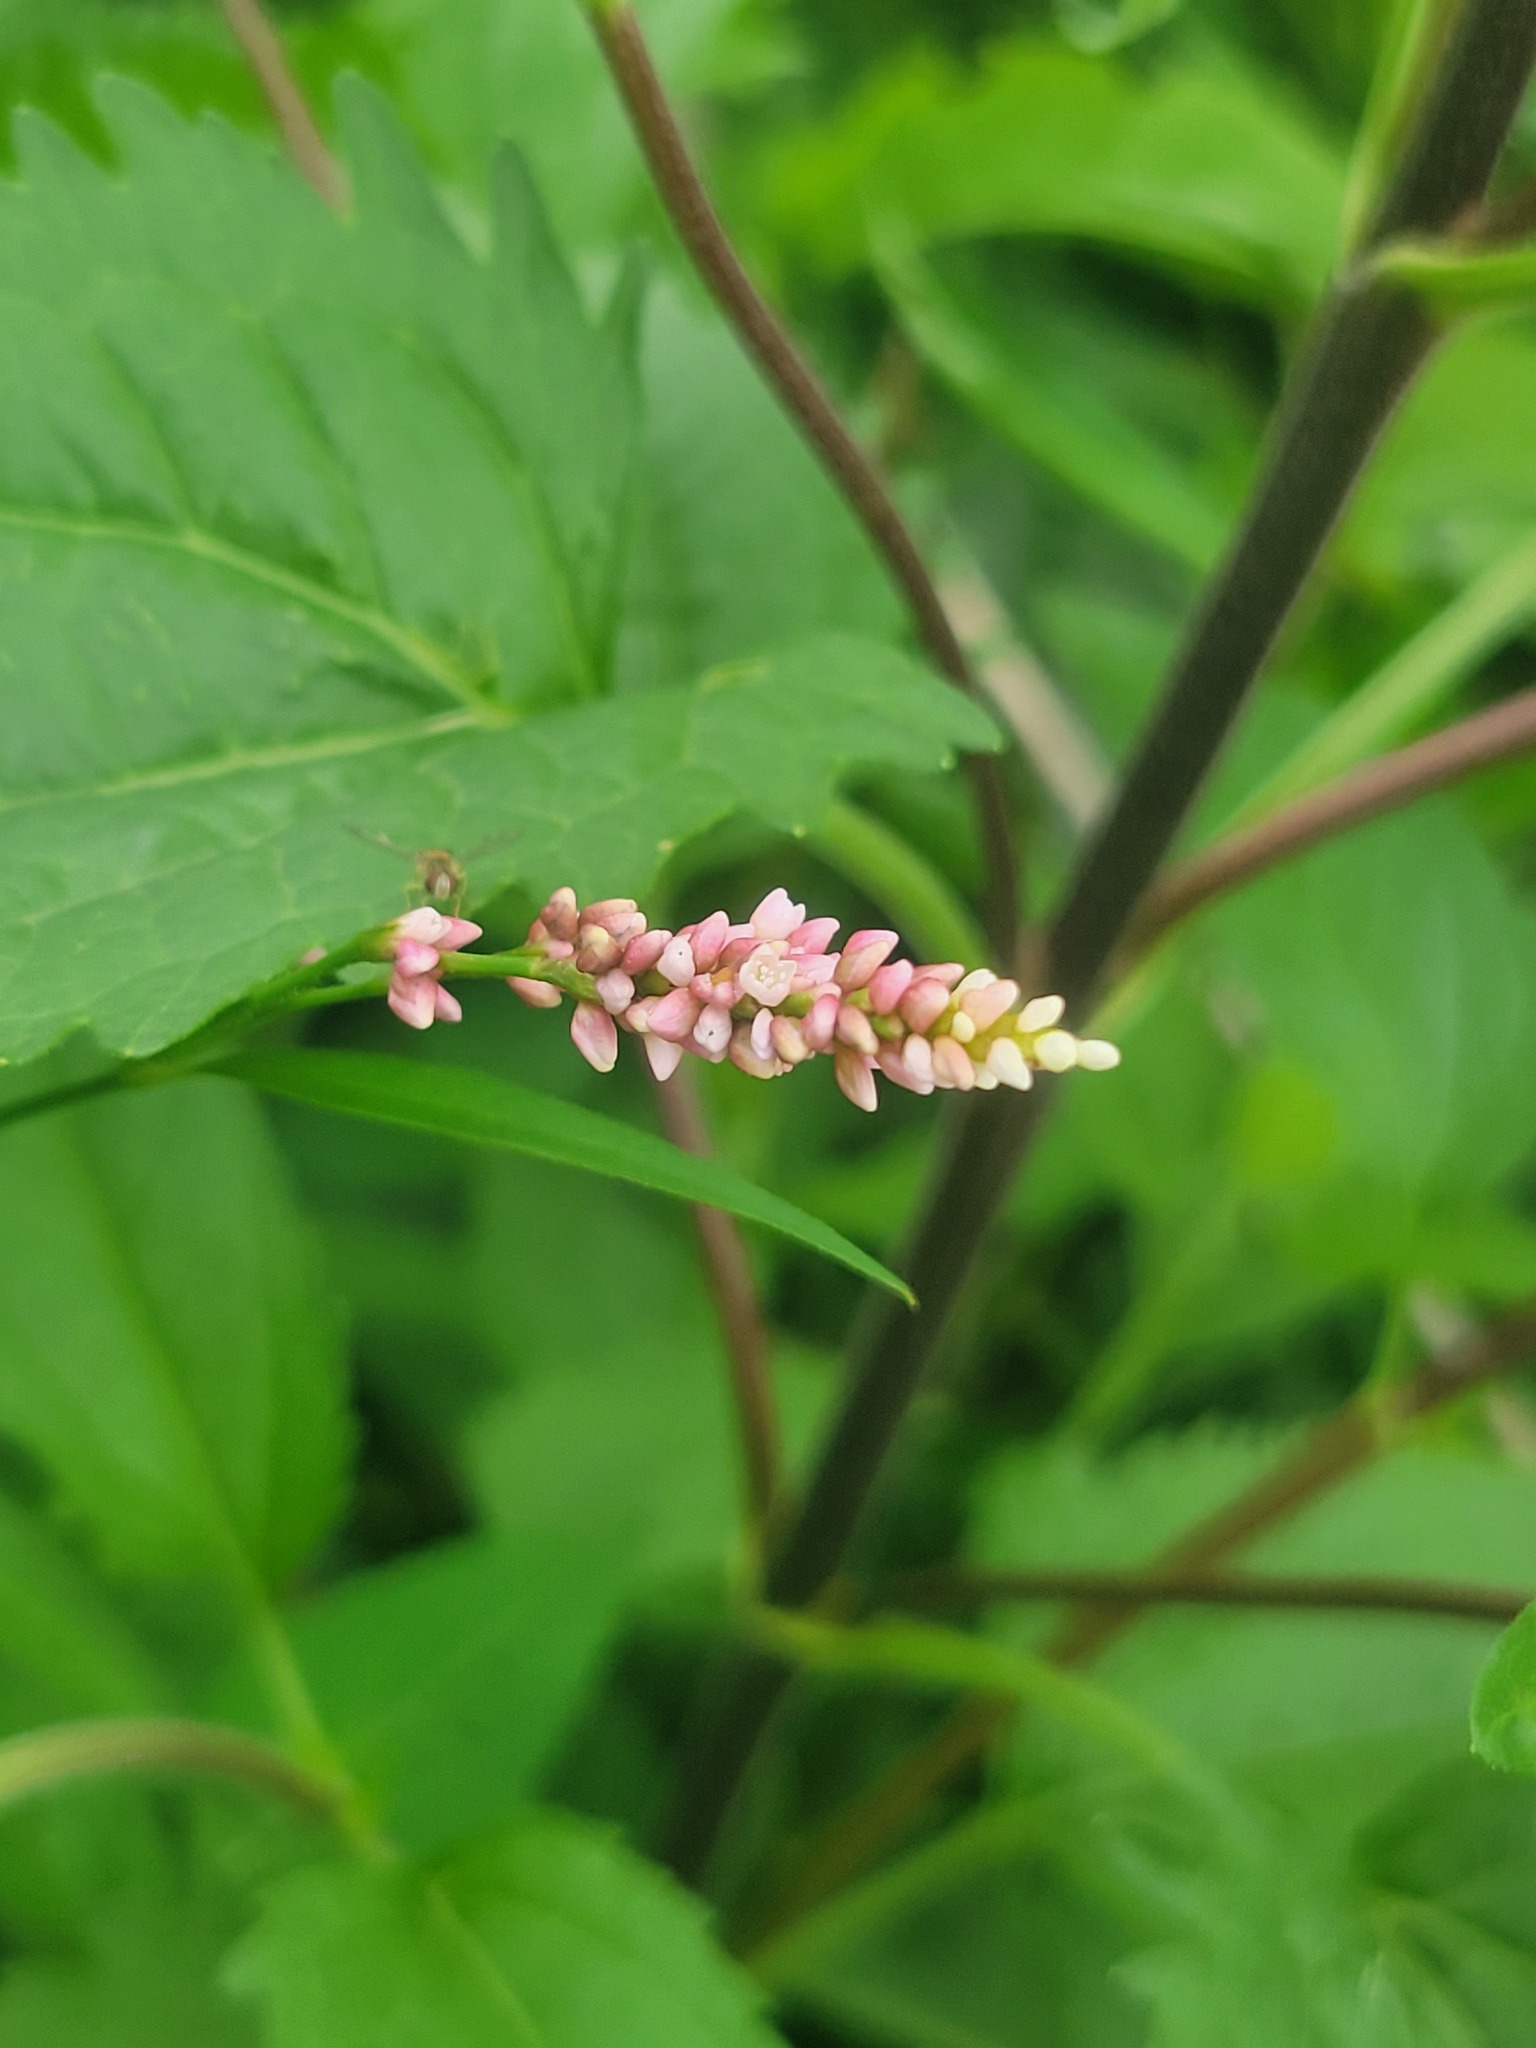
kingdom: Plantae
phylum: Tracheophyta
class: Magnoliopsida
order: Caryophyllales
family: Polygonaceae
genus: Persicaria
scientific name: Persicaria longiseta
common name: Bristly lady's-thumb
